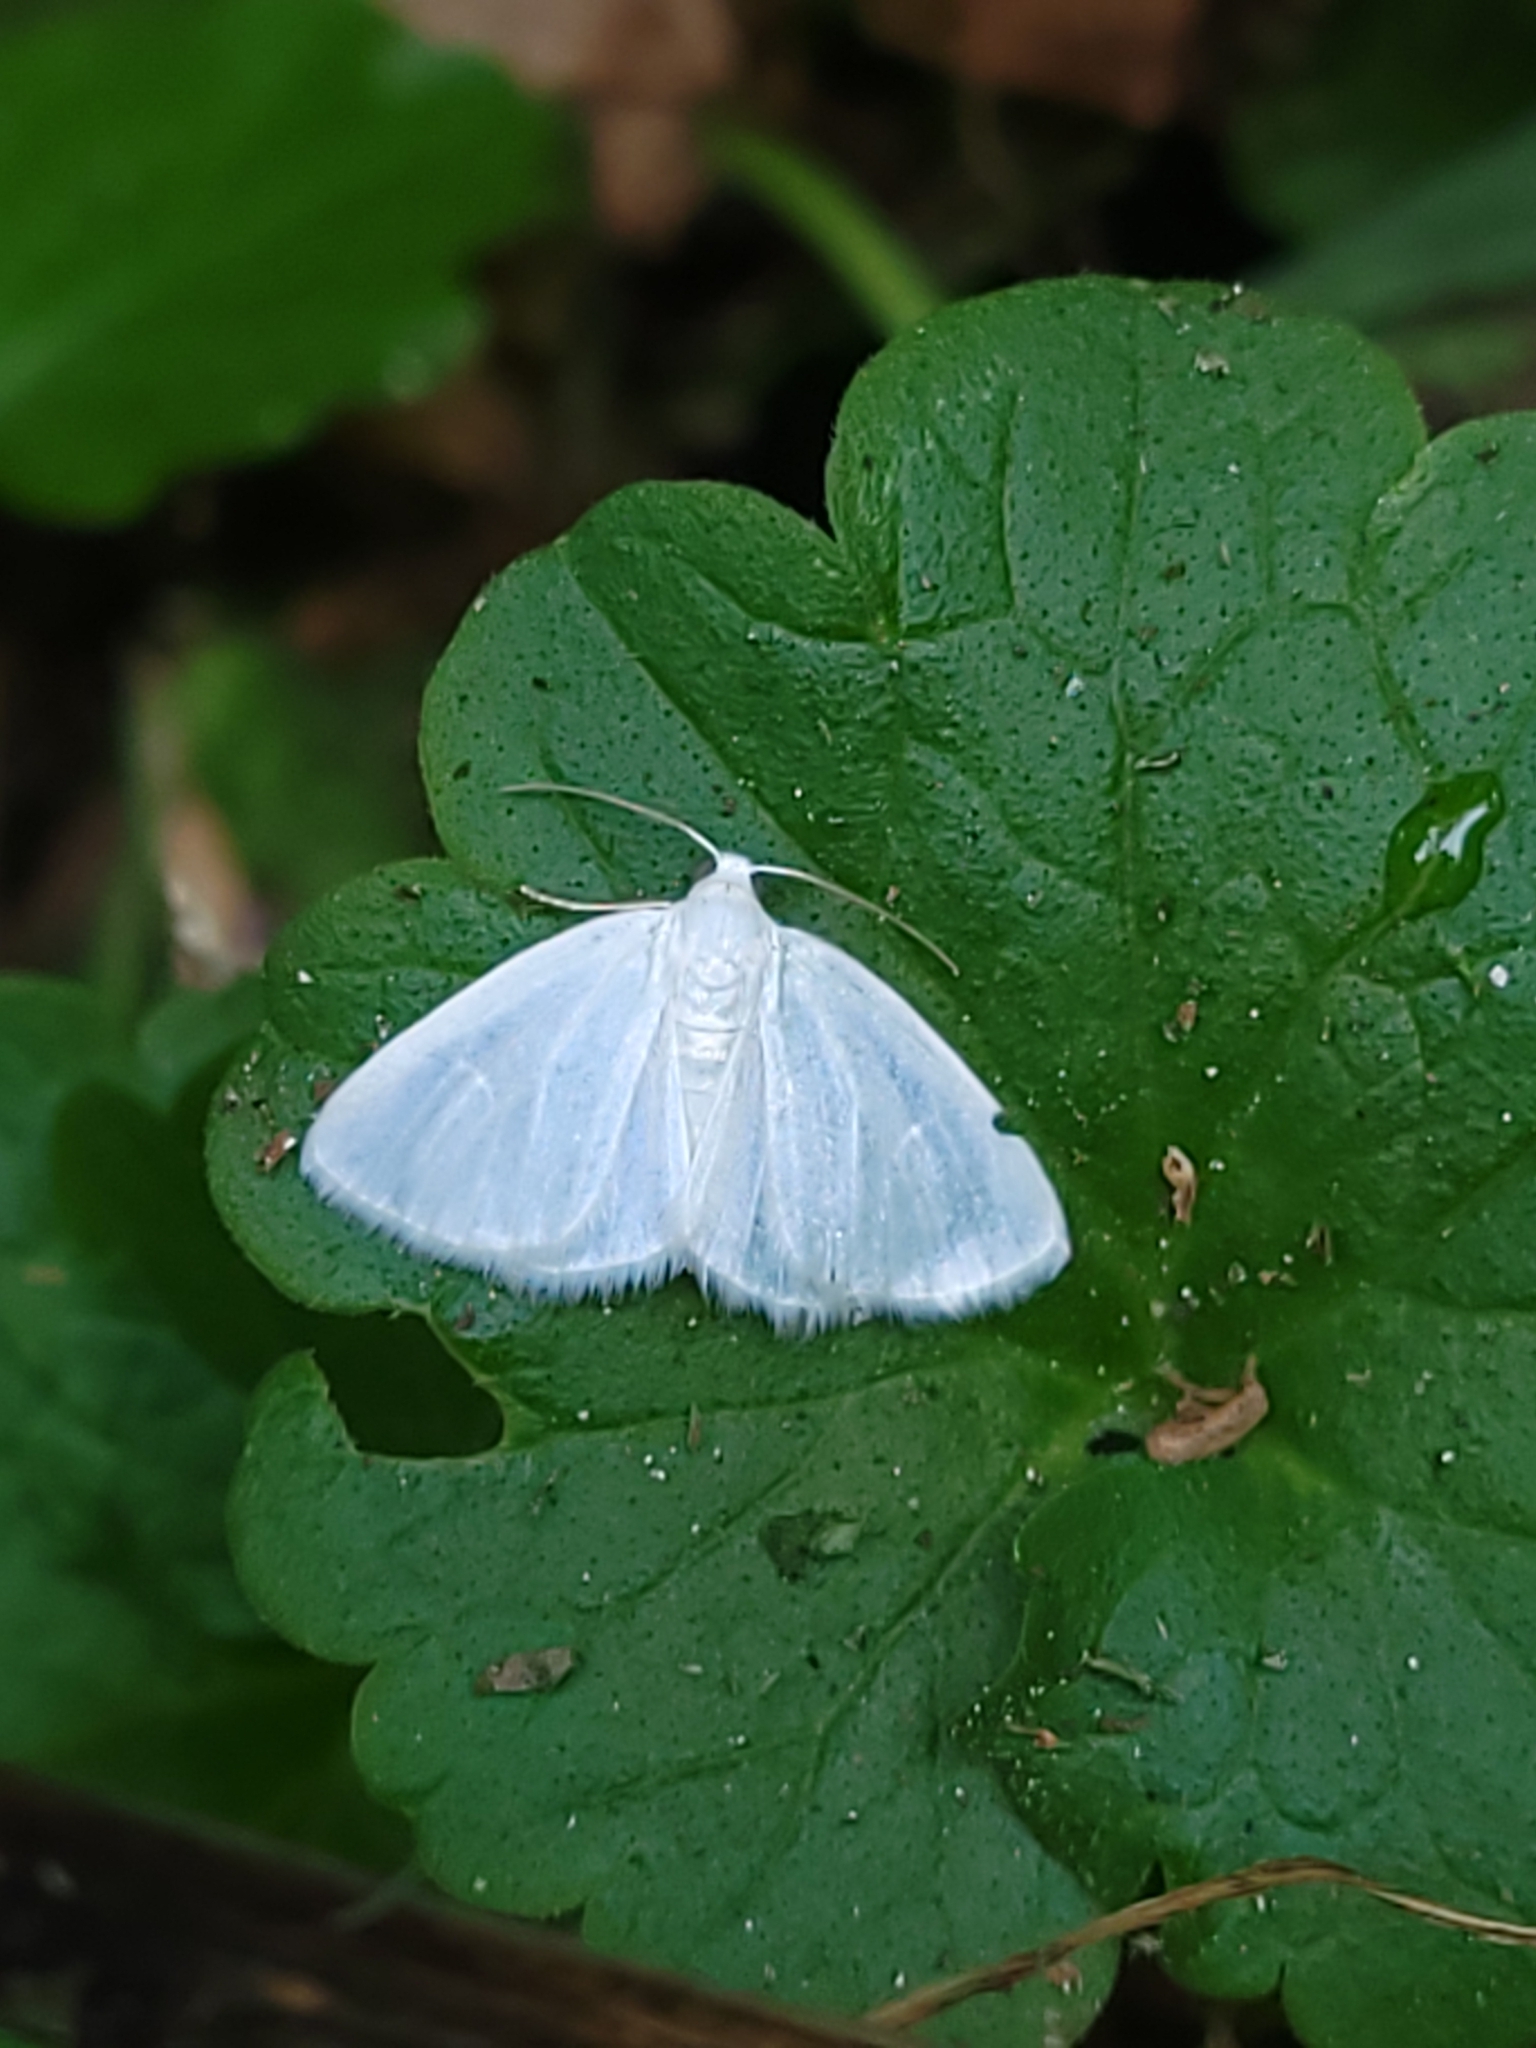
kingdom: Animalia
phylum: Arthropoda
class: Insecta
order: Lepidoptera
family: Geometridae
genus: Lomographa
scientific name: Lomographa vestaliata
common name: White spring moth
